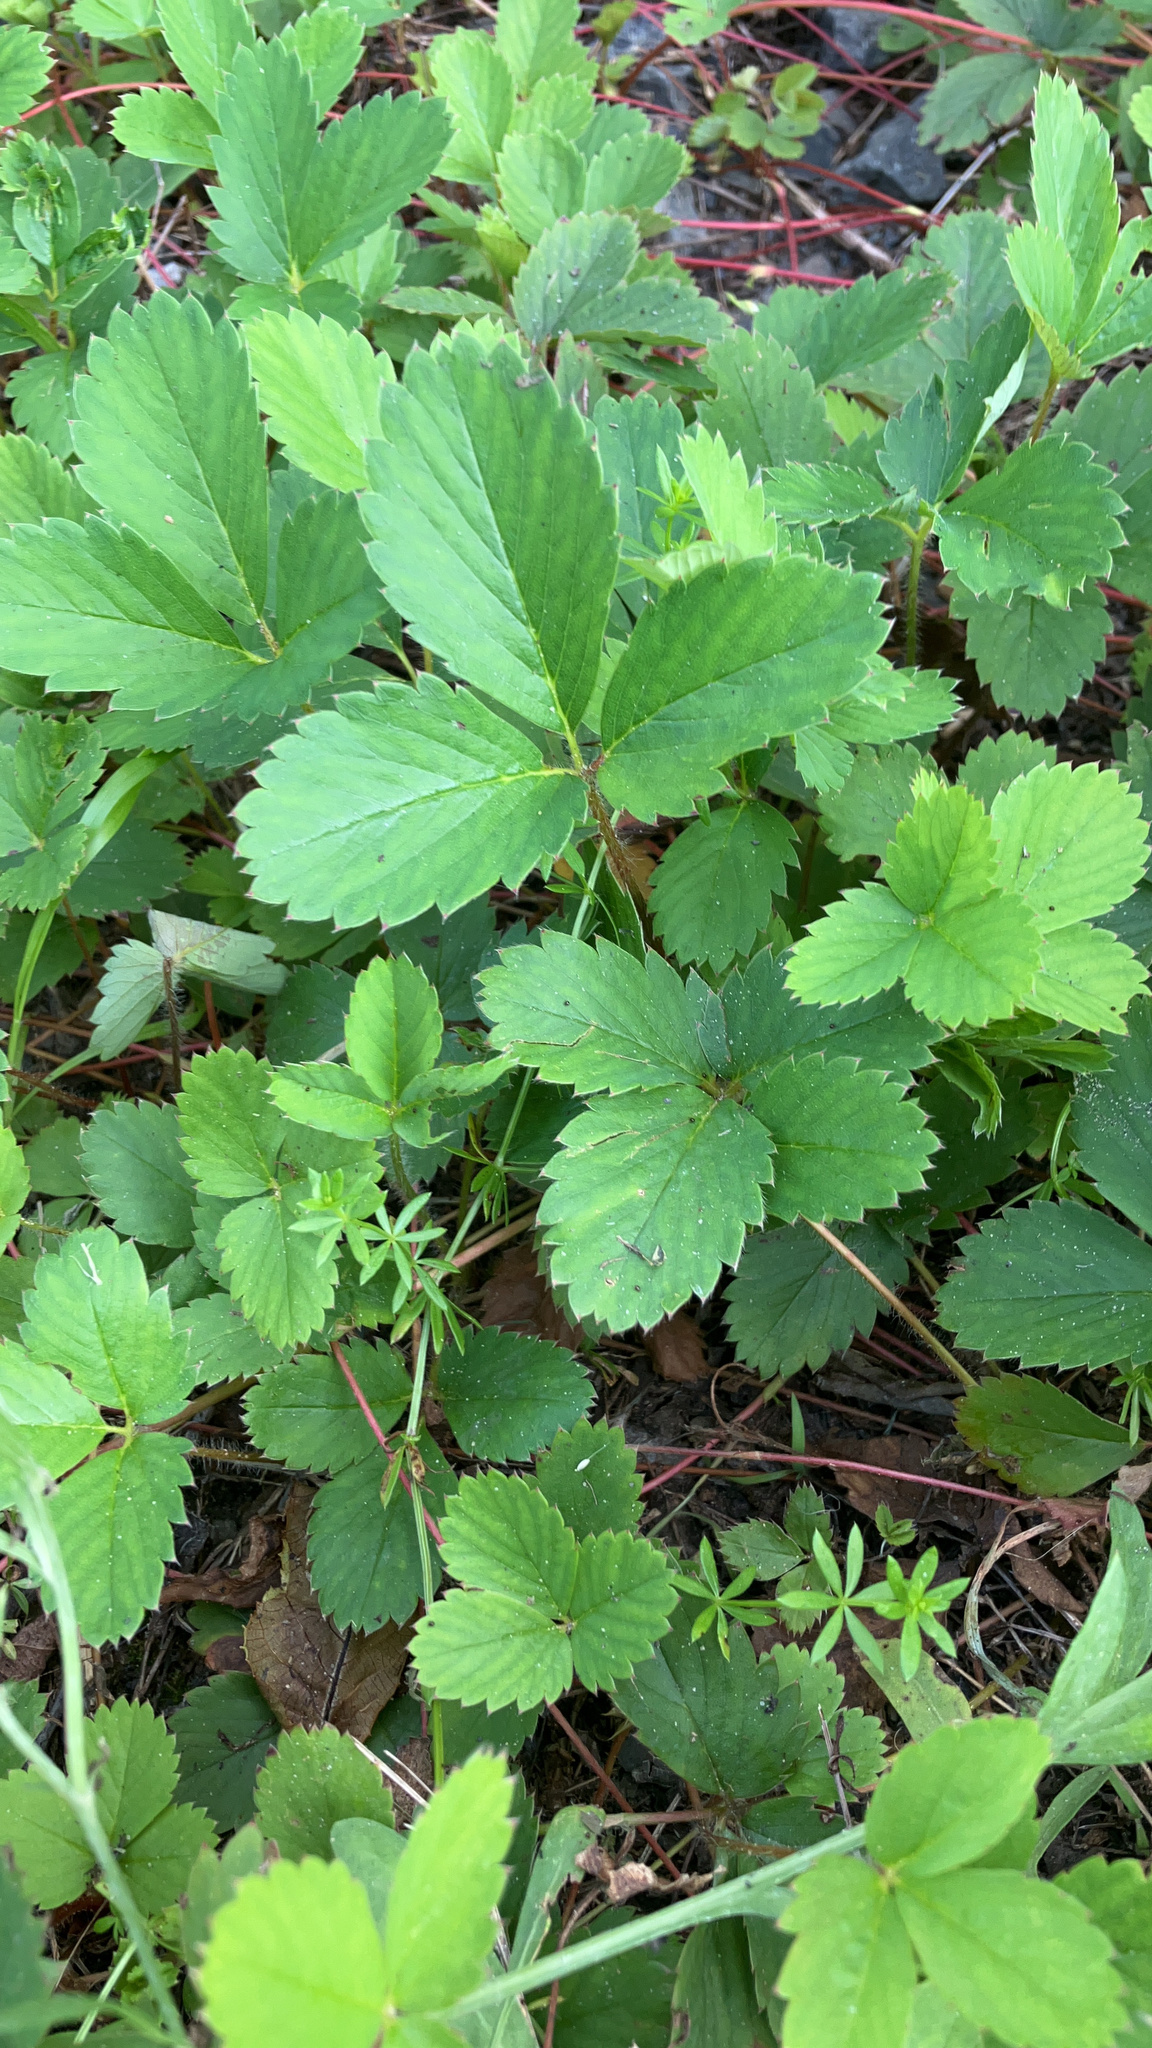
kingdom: Plantae
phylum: Tracheophyta
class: Magnoliopsida
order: Rosales
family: Rosaceae
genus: Fragaria
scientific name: Fragaria virginiana
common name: Thickleaved wild strawberry
